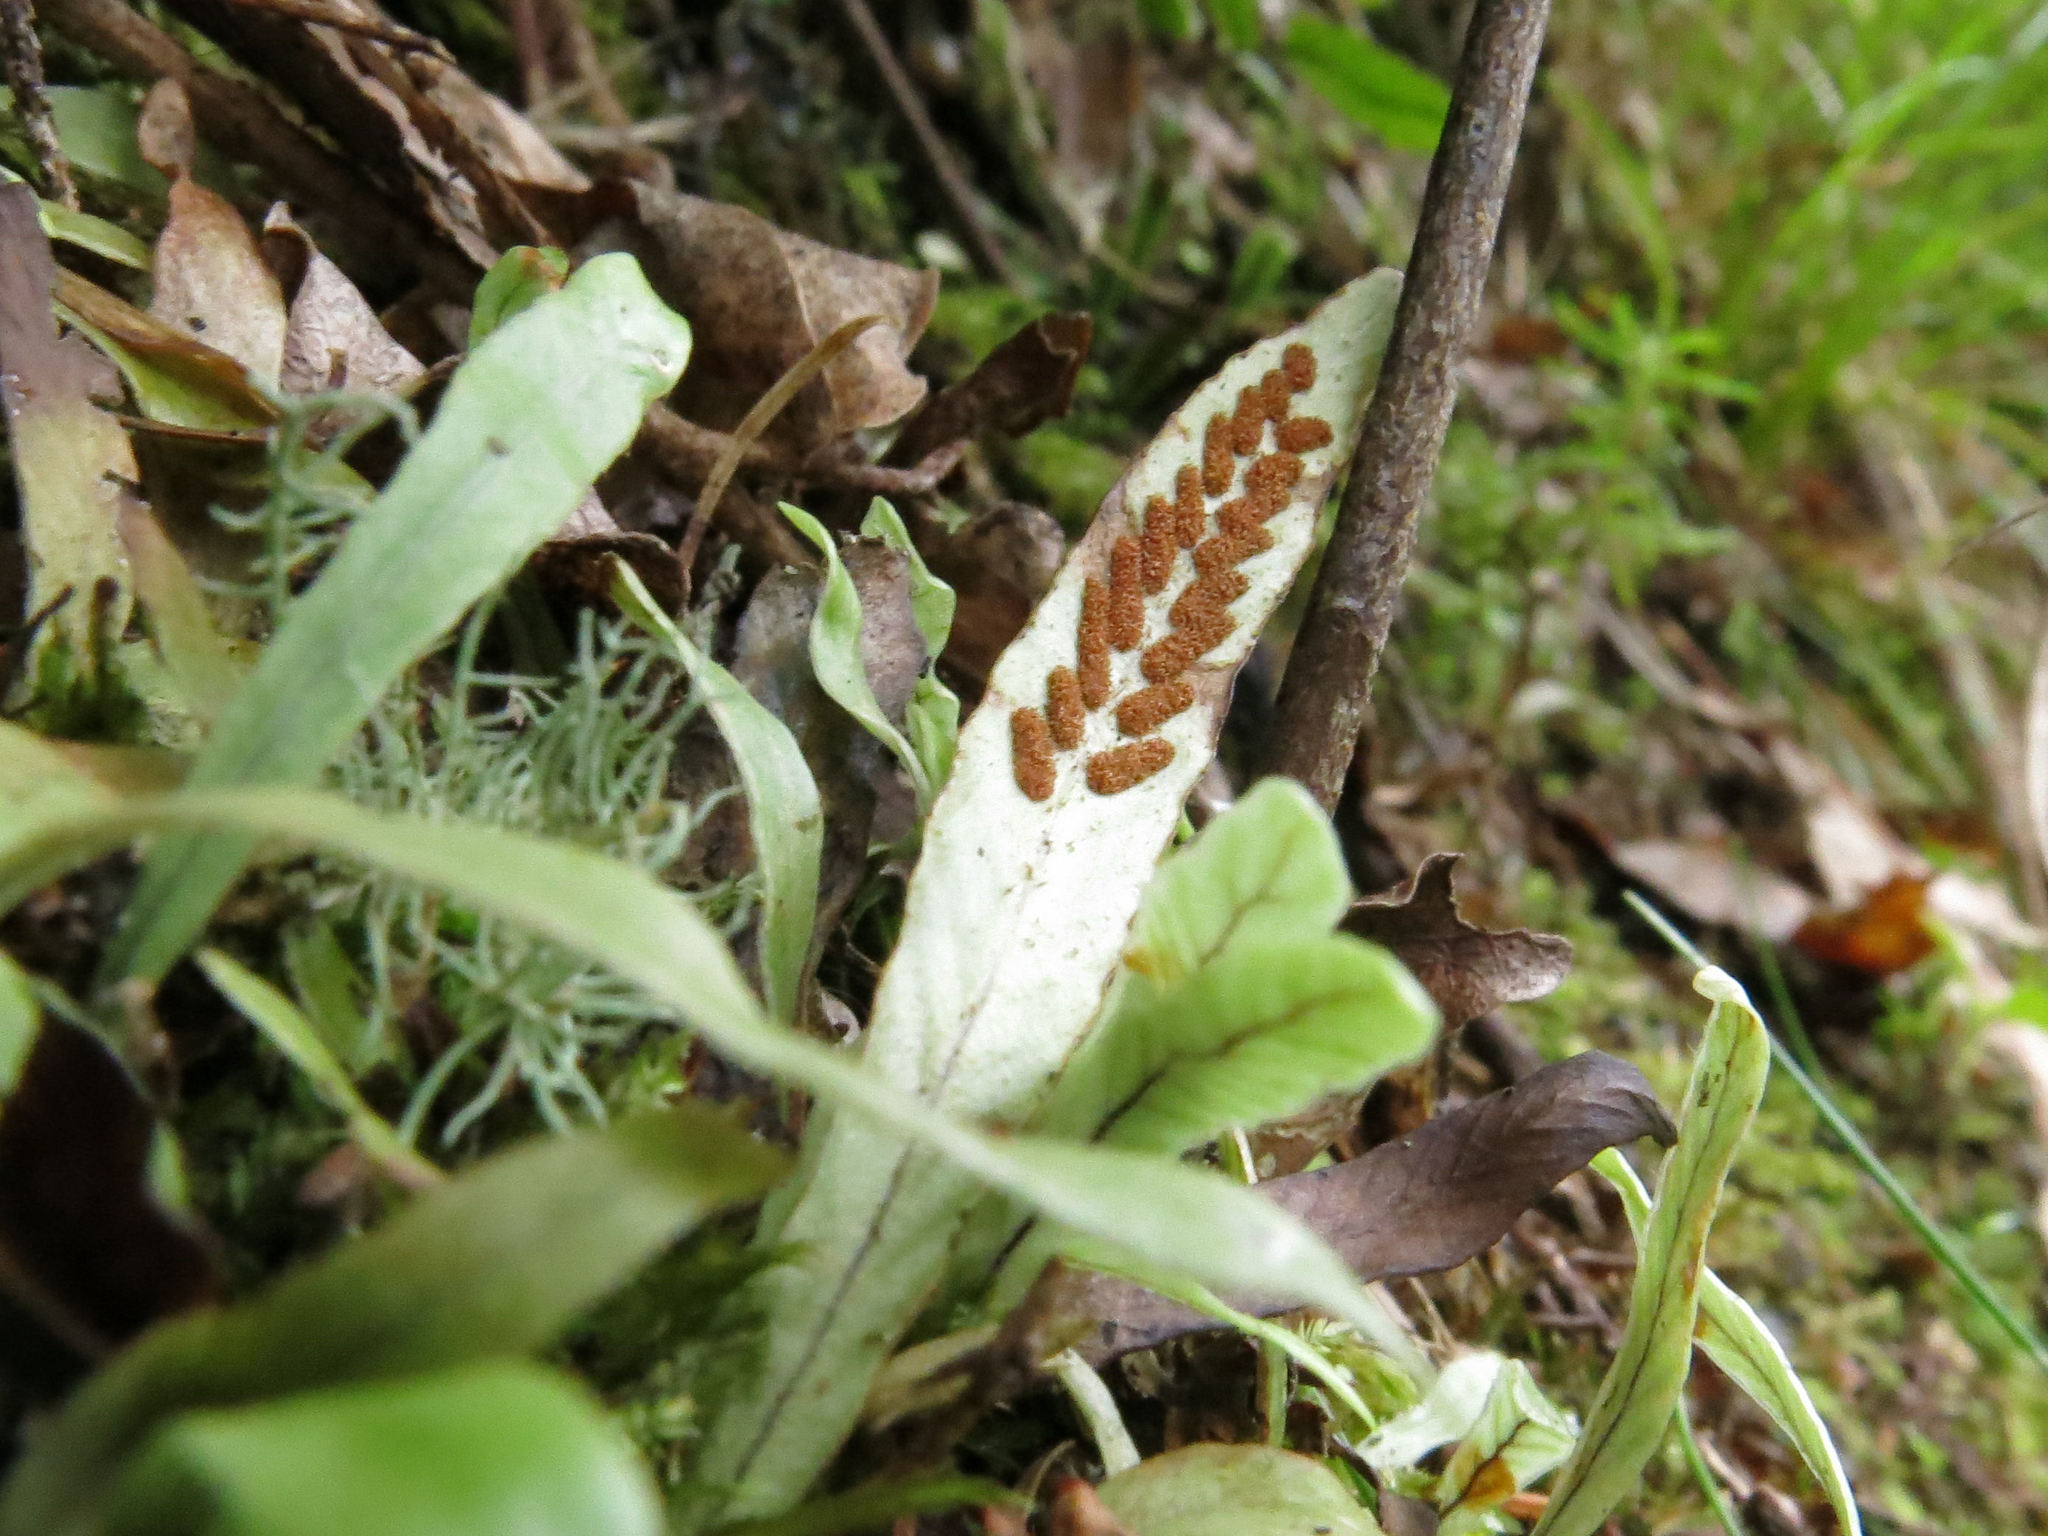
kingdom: Plantae
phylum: Tracheophyta
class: Polypodiopsida
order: Polypodiales
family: Polypodiaceae
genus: Notogrammitis
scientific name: Notogrammitis billardierei
